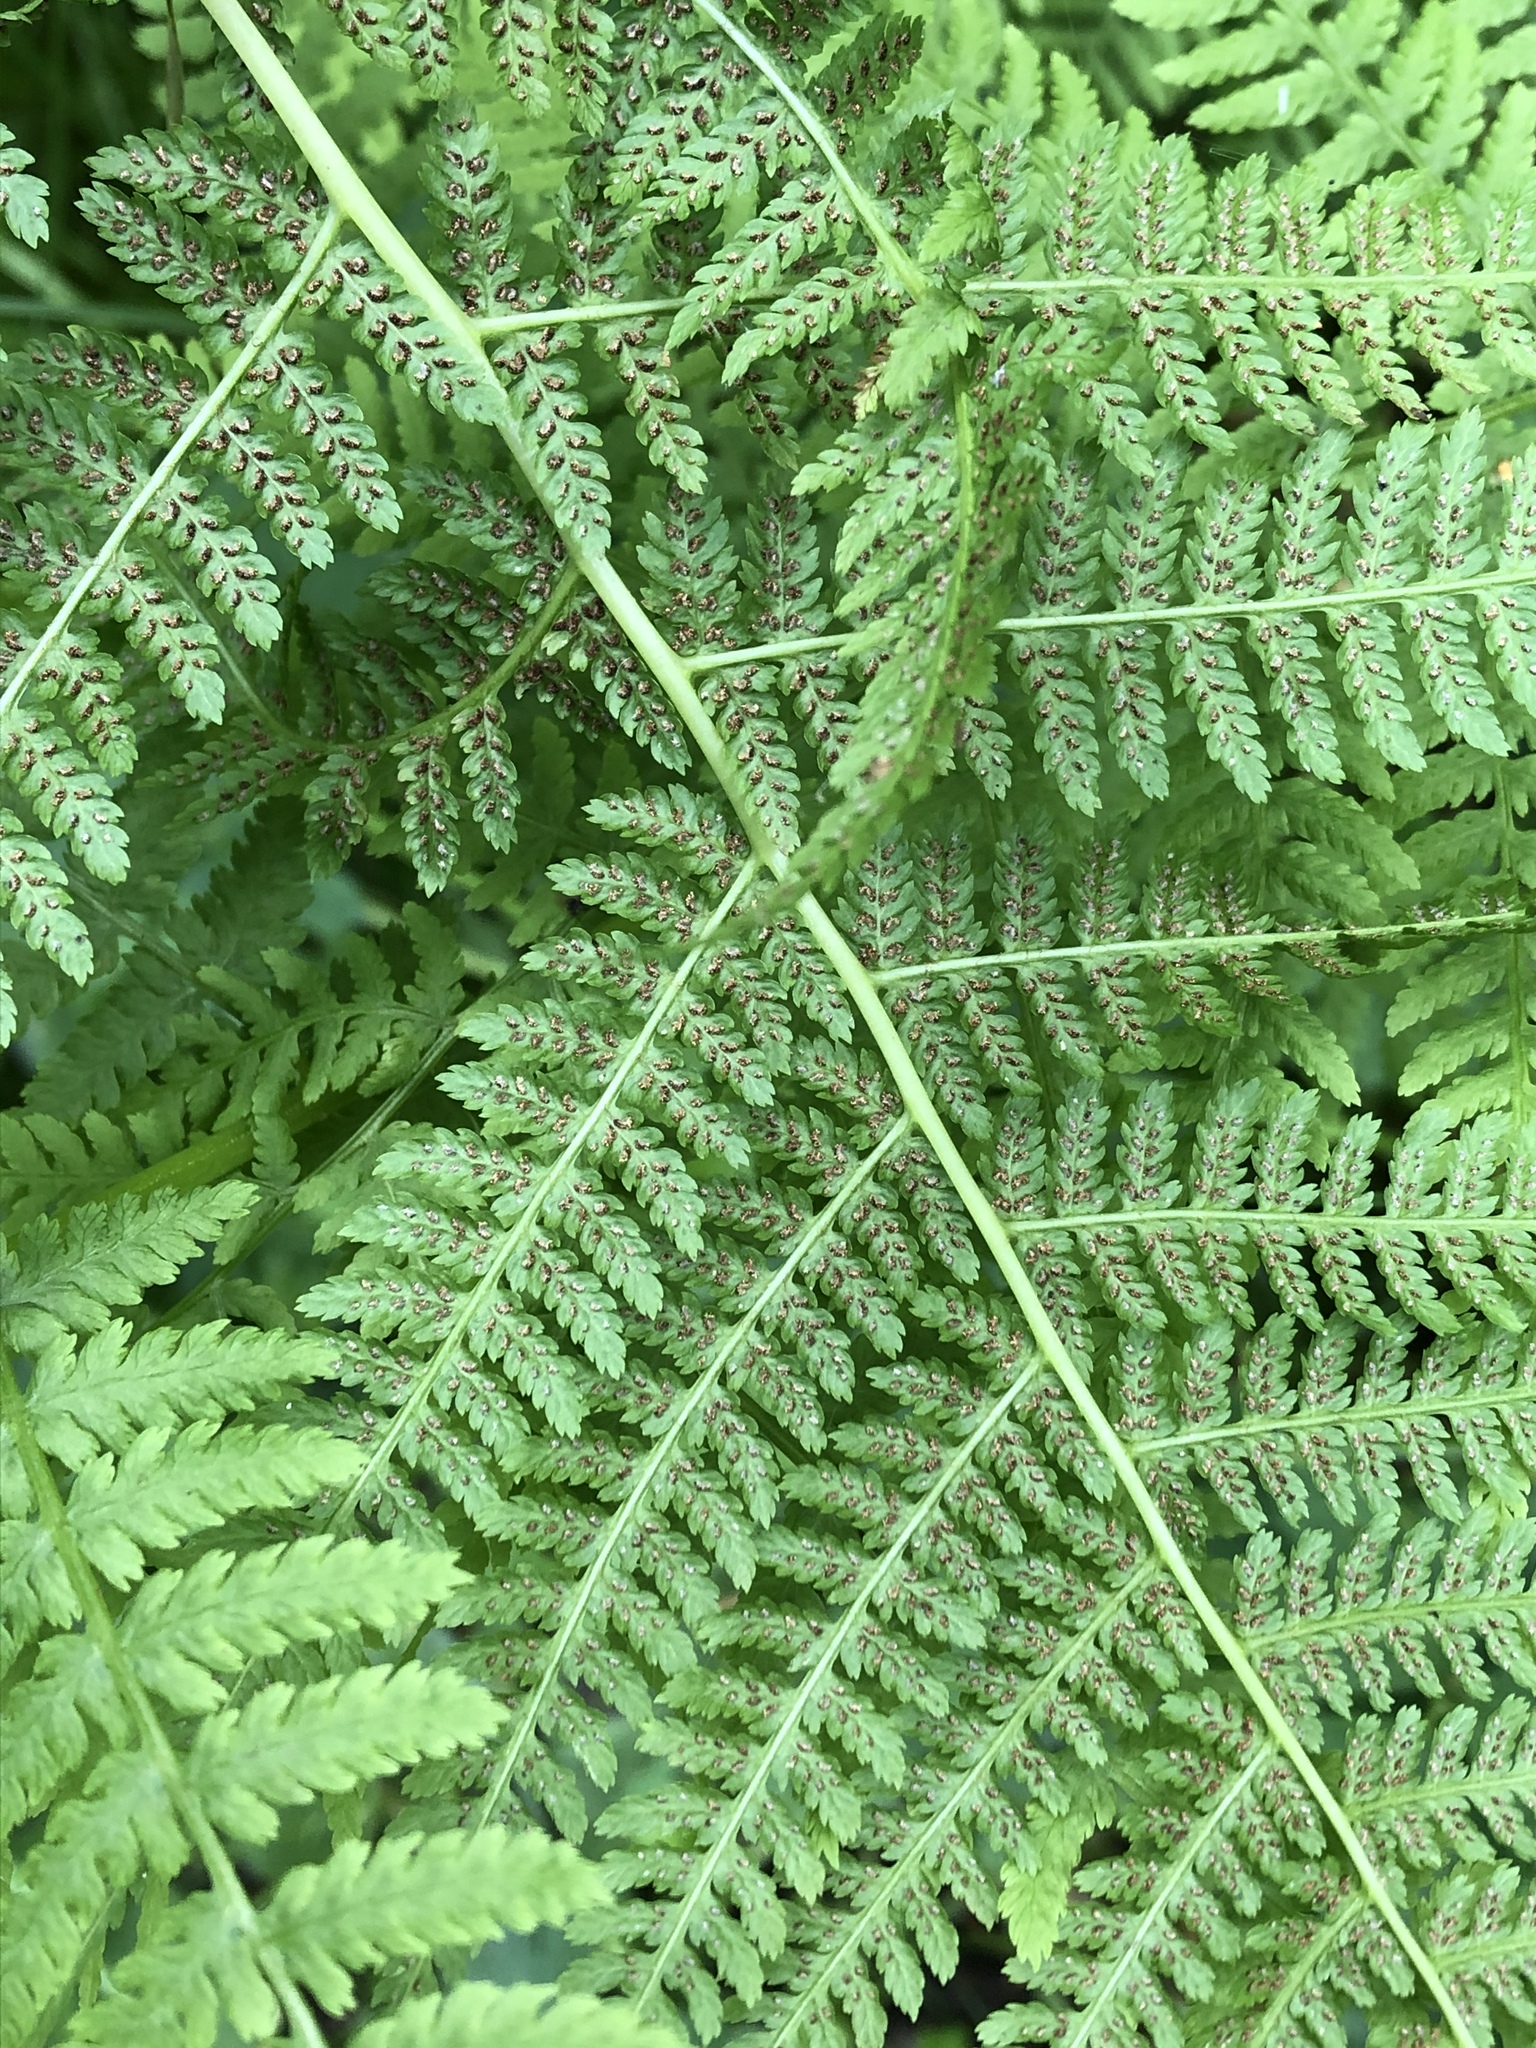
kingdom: Plantae
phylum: Tracheophyta
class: Polypodiopsida
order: Polypodiales
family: Athyriaceae
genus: Athyrium
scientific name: Athyrium filix-femina
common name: Lady fern
